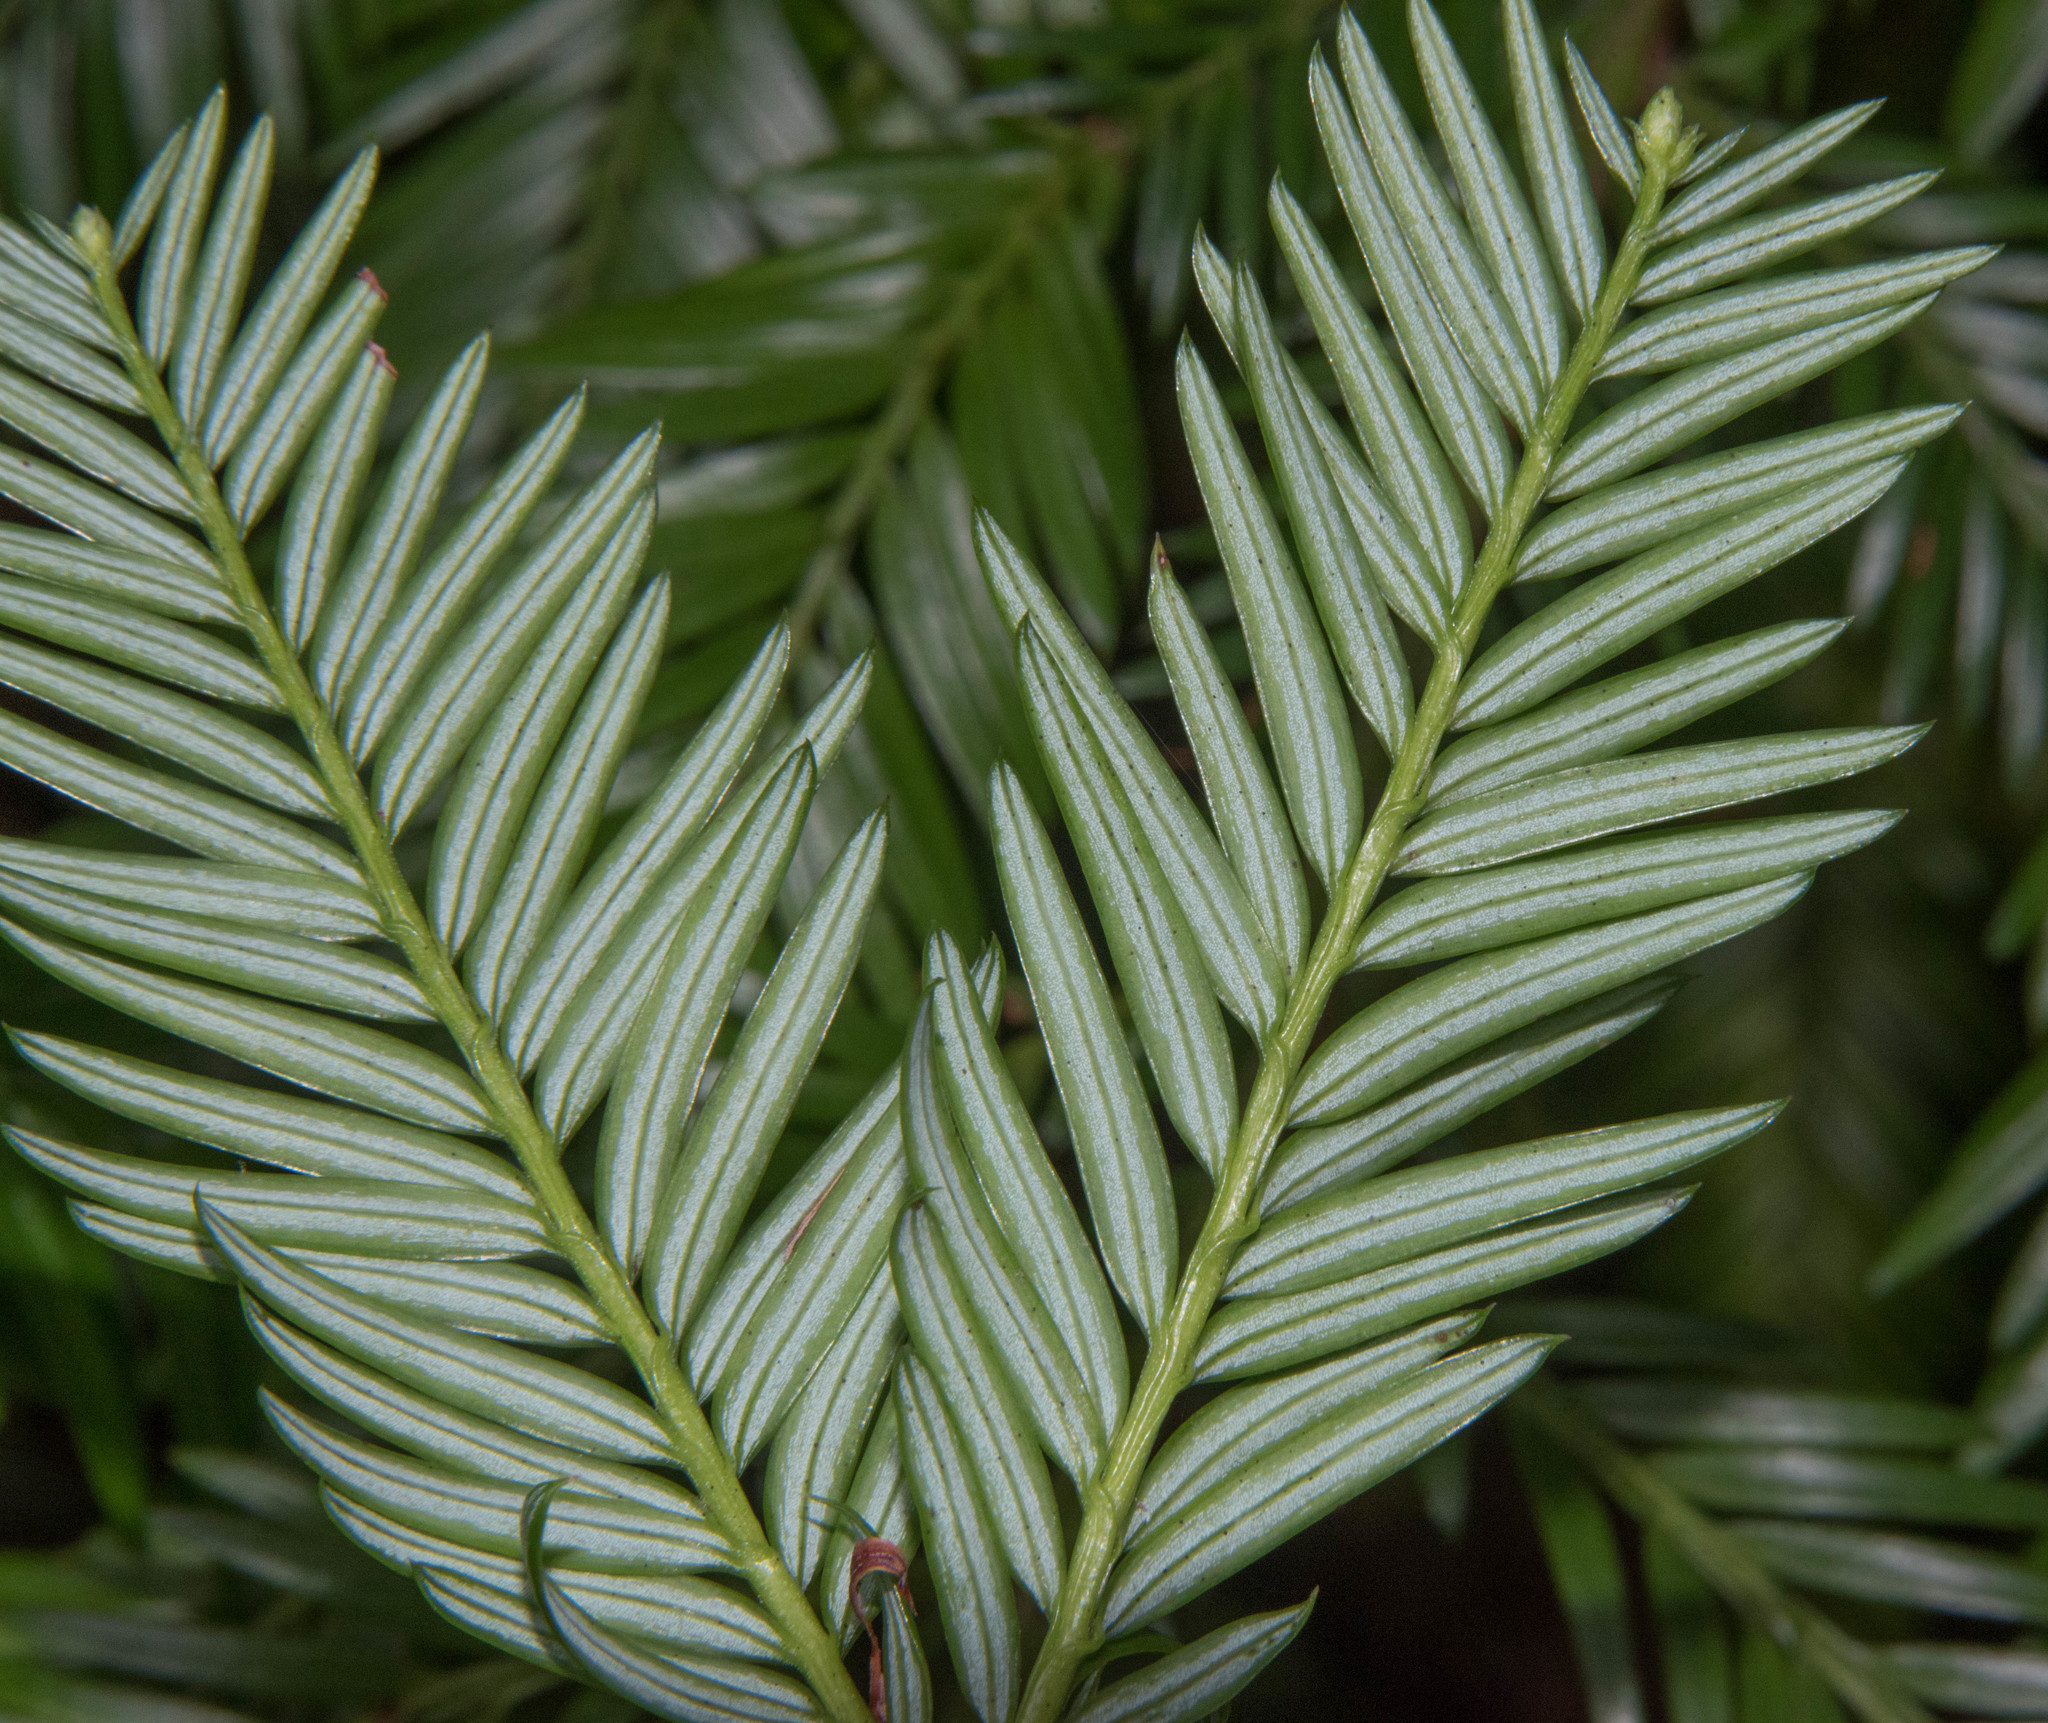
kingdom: Plantae
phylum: Tracheophyta
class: Pinopsida
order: Pinales
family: Taxaceae
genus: Taxus
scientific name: Taxus brevifolia
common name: Pacific yew
